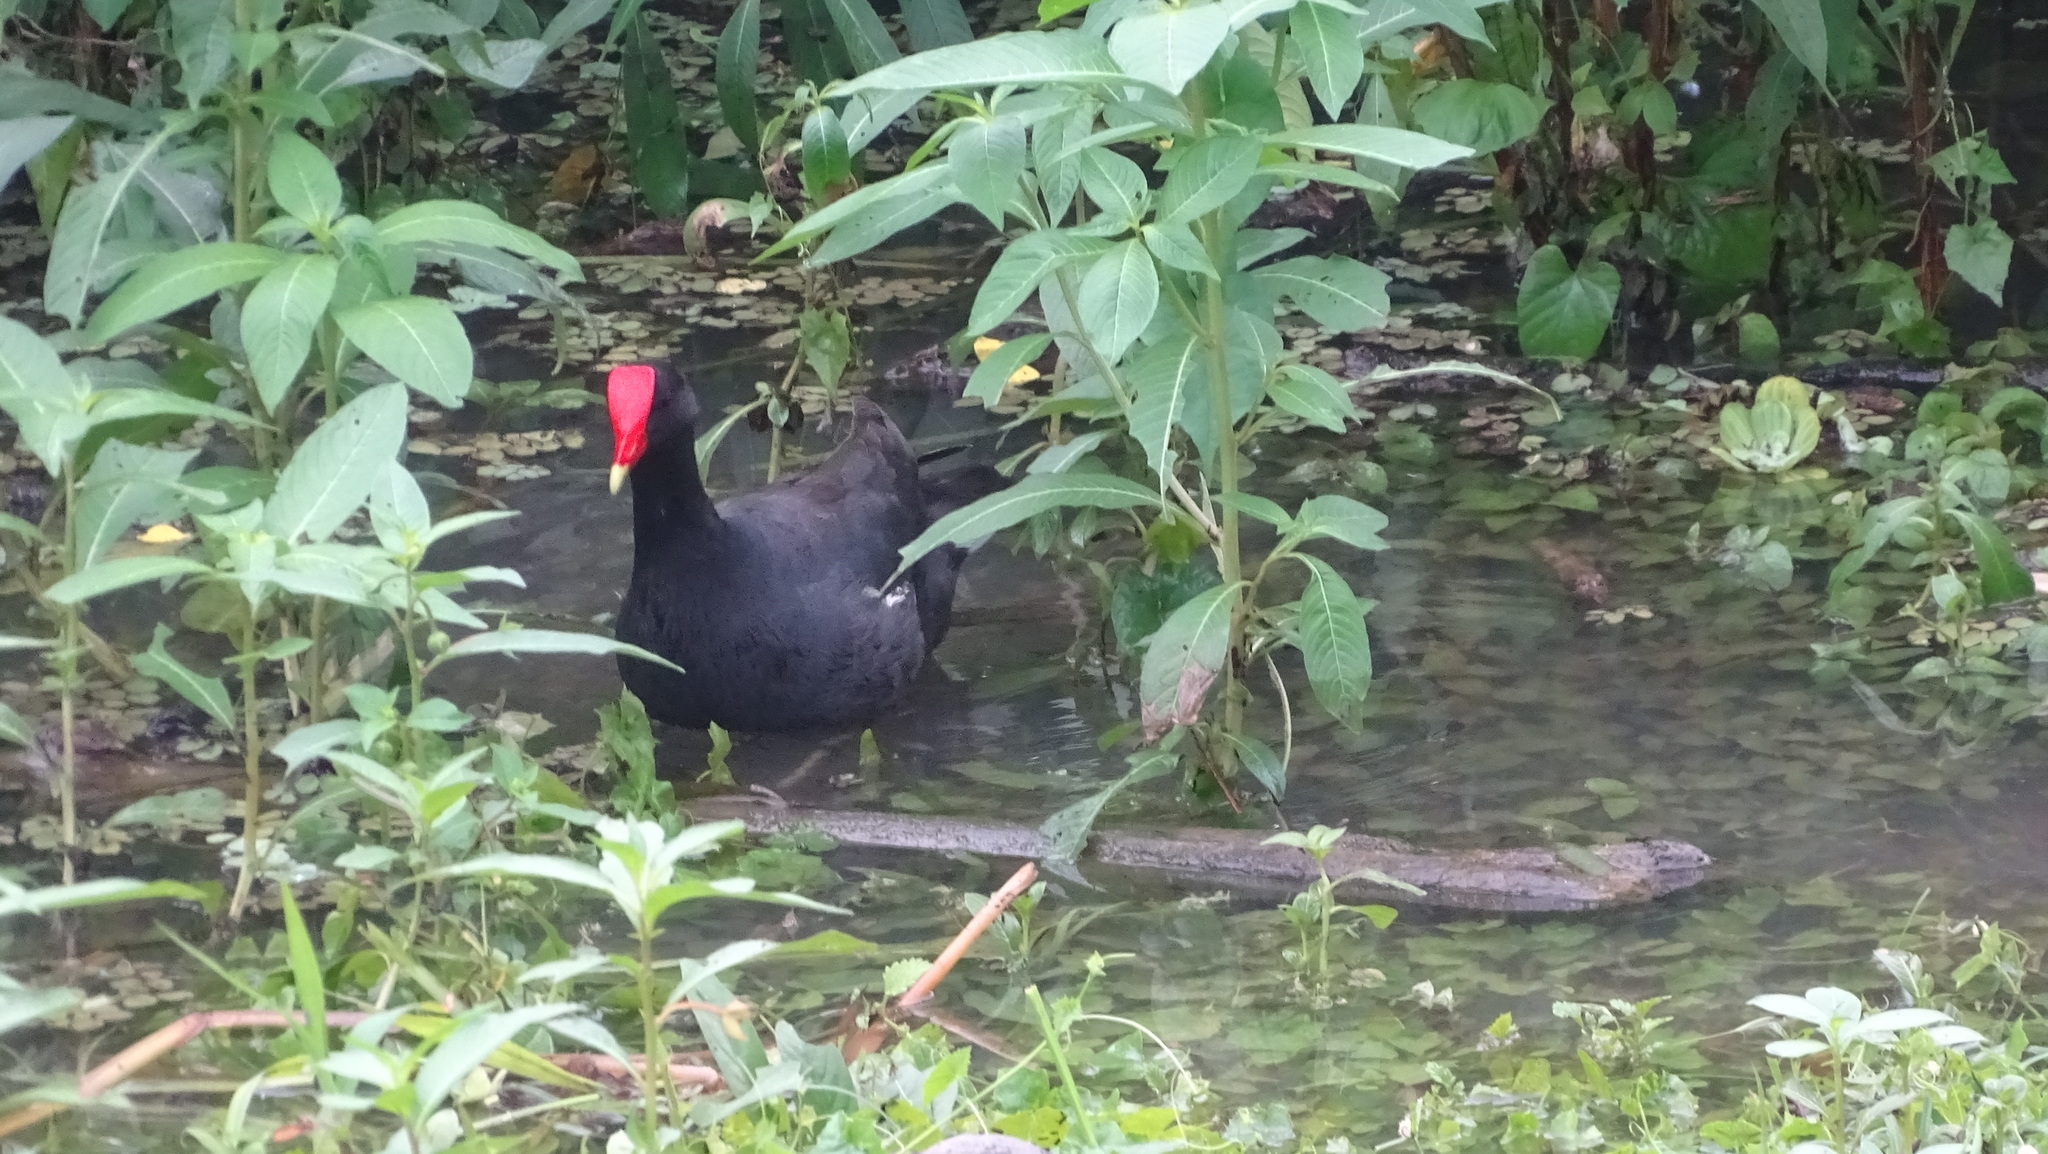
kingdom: Animalia
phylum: Chordata
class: Aves
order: Gruiformes
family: Rallidae
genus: Gallinula
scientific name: Gallinula chloropus
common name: Common moorhen
